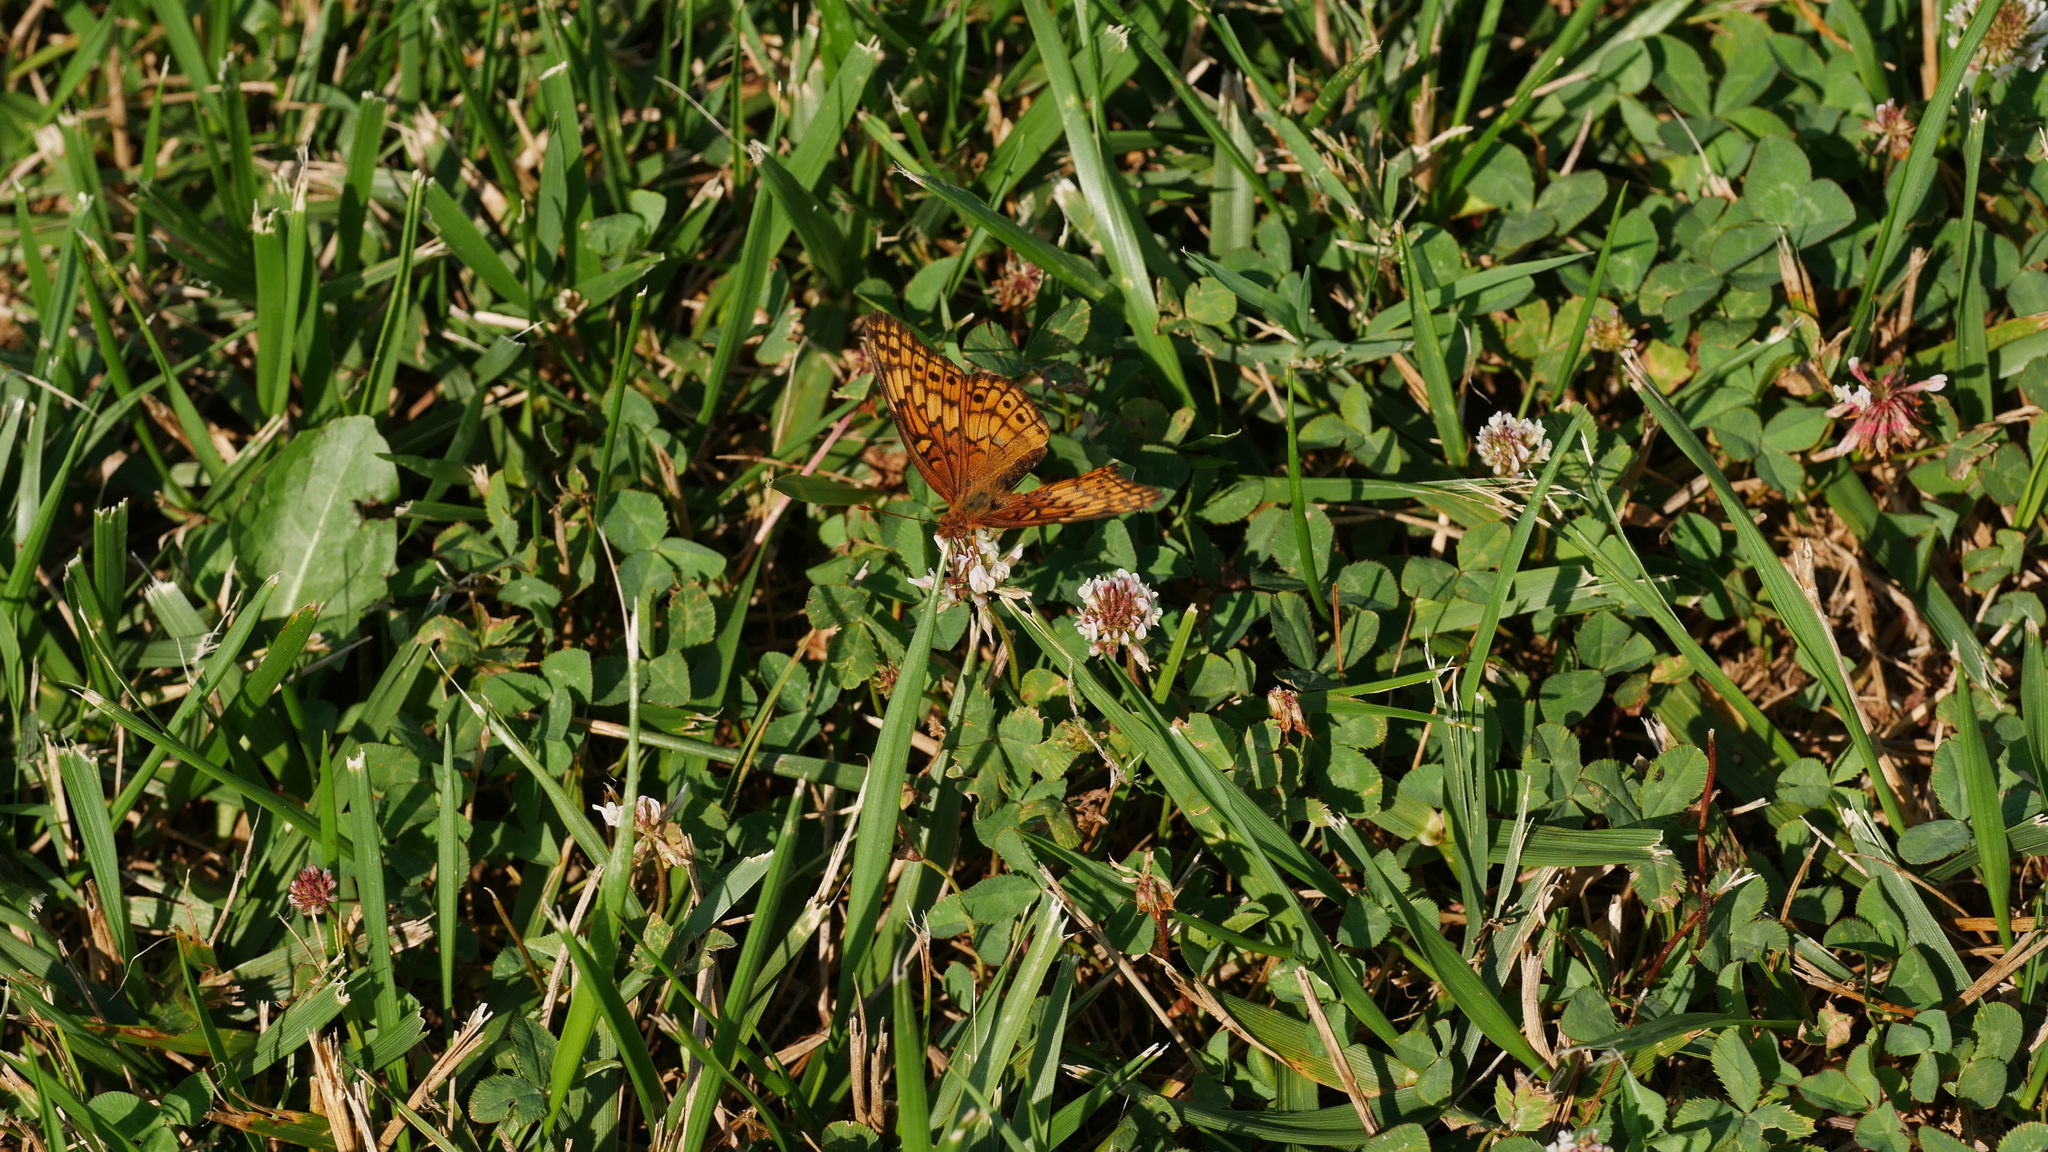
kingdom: Animalia
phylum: Arthropoda
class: Insecta
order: Lepidoptera
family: Nymphalidae
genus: Euptoieta
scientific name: Euptoieta claudia
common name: Variegated fritillary
